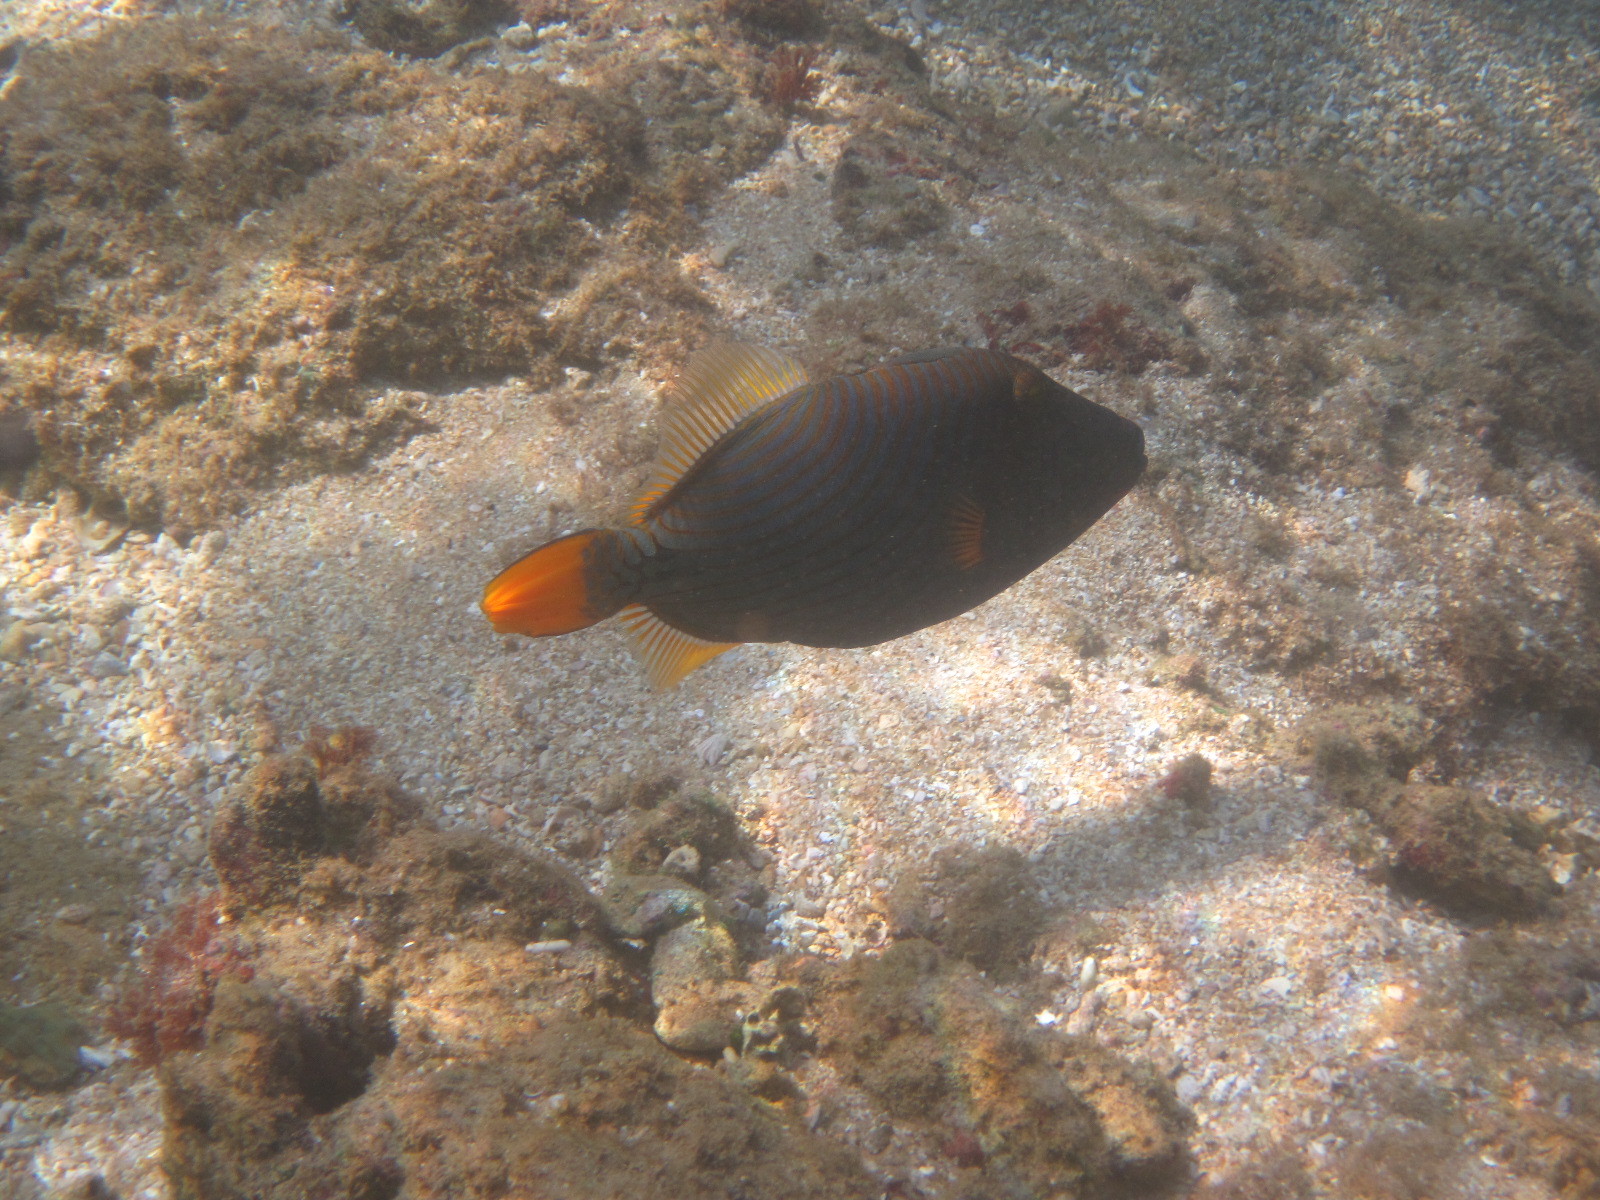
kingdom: Animalia
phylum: Chordata
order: Tetraodontiformes
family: Balistidae
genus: Balistapus
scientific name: Balistapus undulatus
